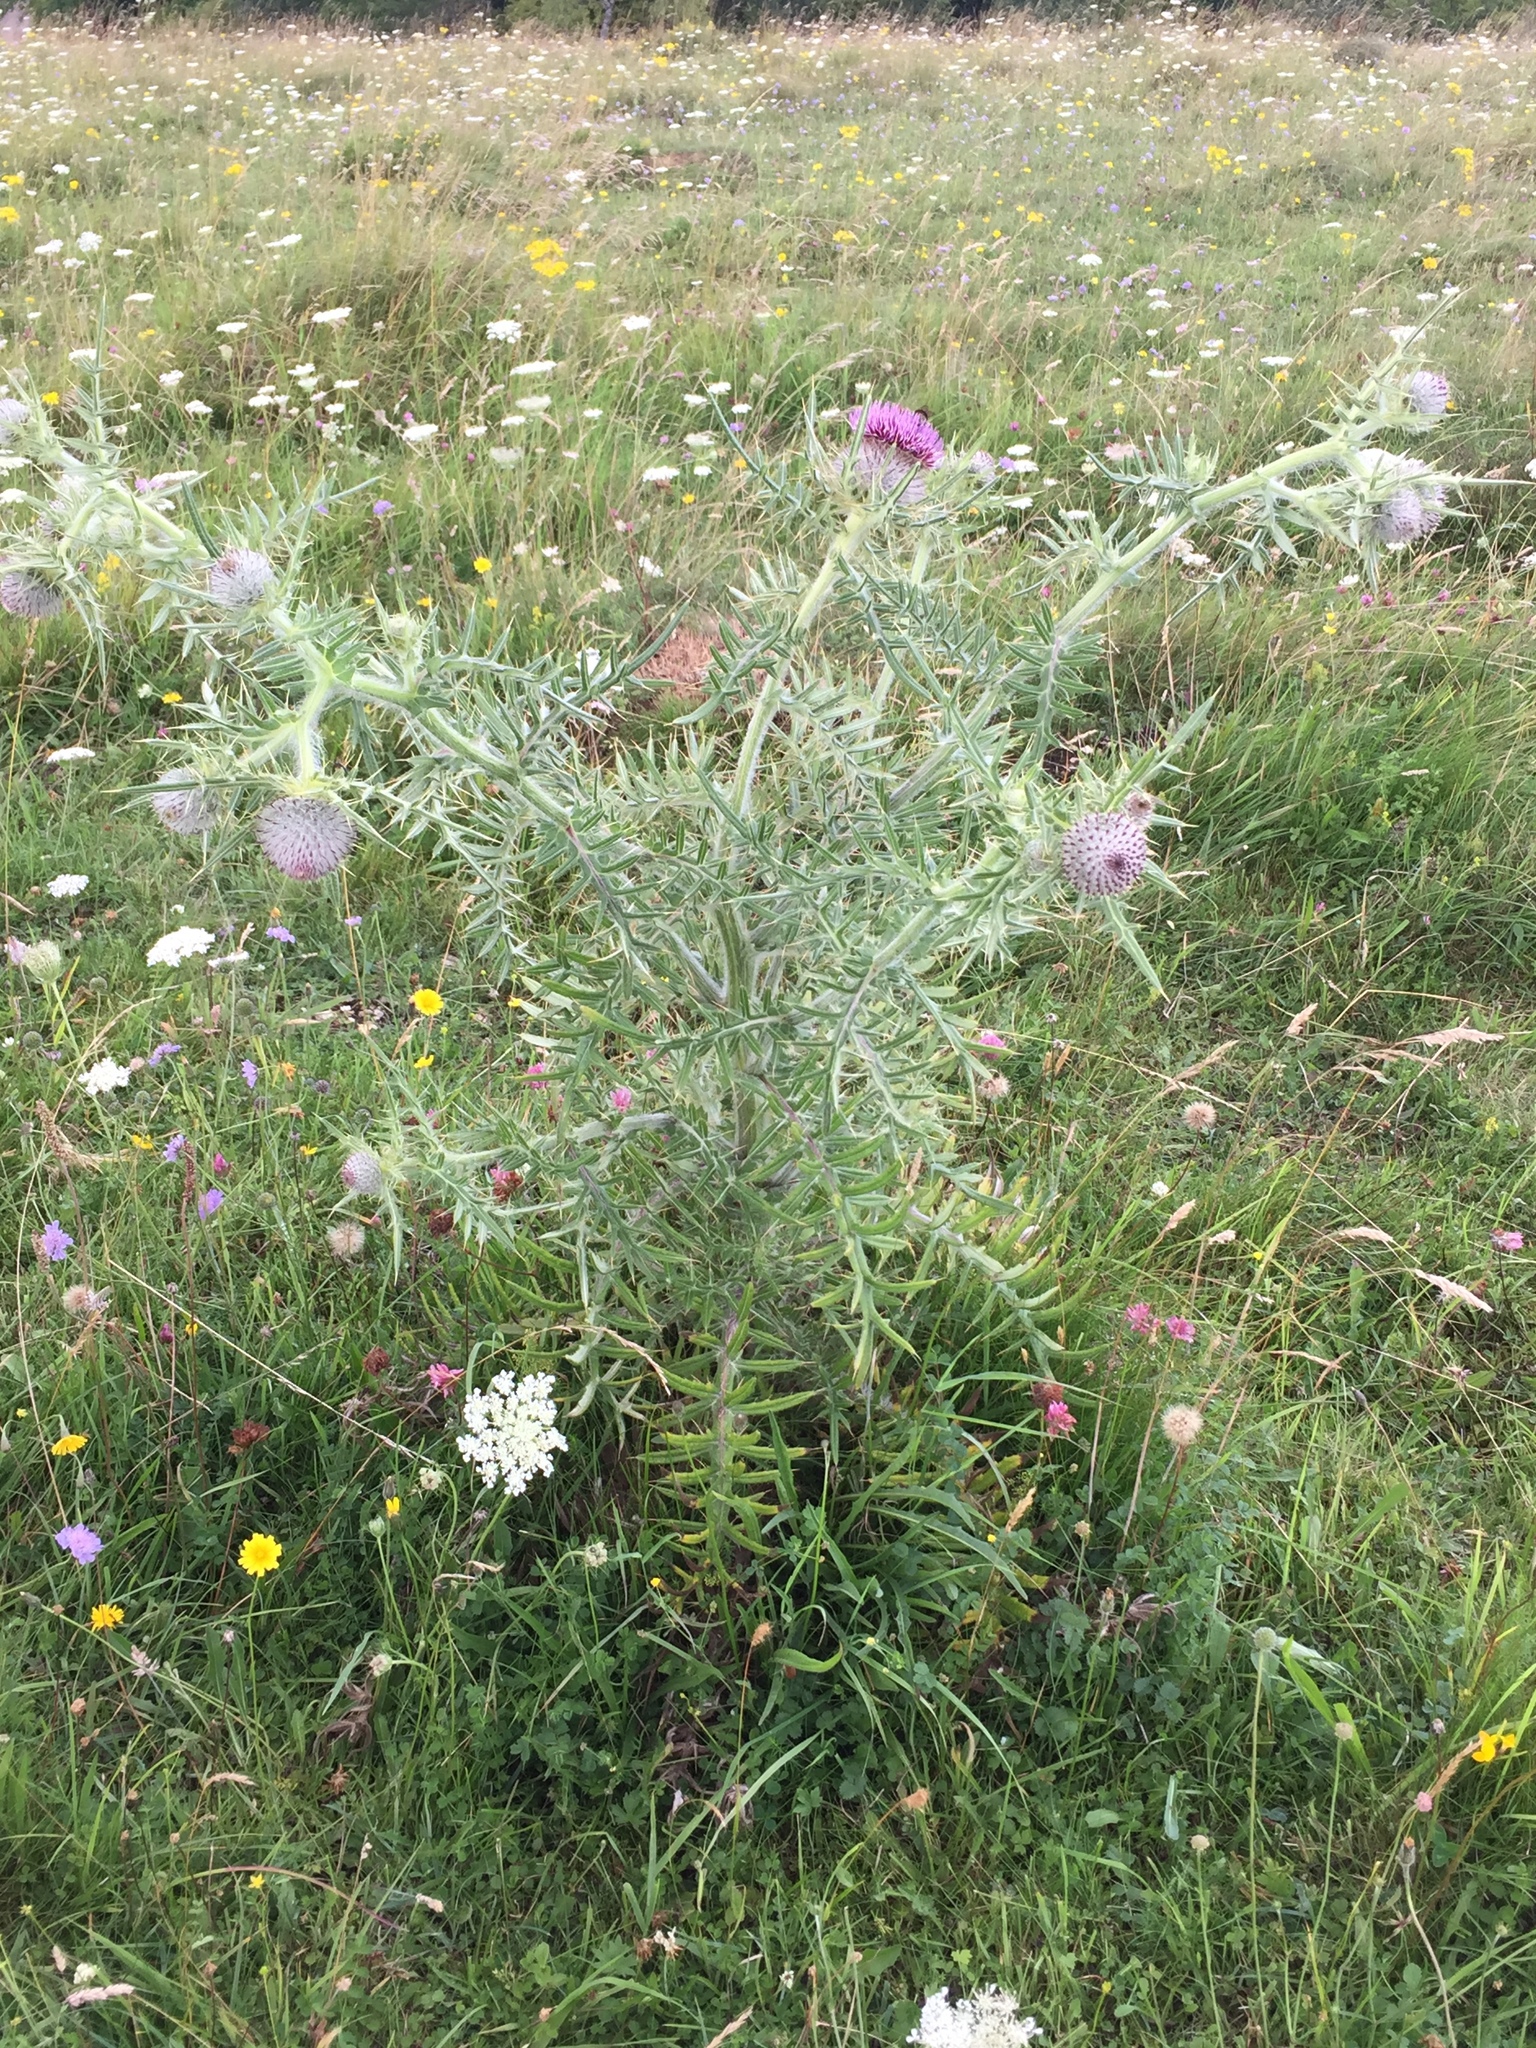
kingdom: Plantae
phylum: Tracheophyta
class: Magnoliopsida
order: Asterales
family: Asteraceae
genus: Lophiolepis
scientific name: Lophiolepis eriophora
